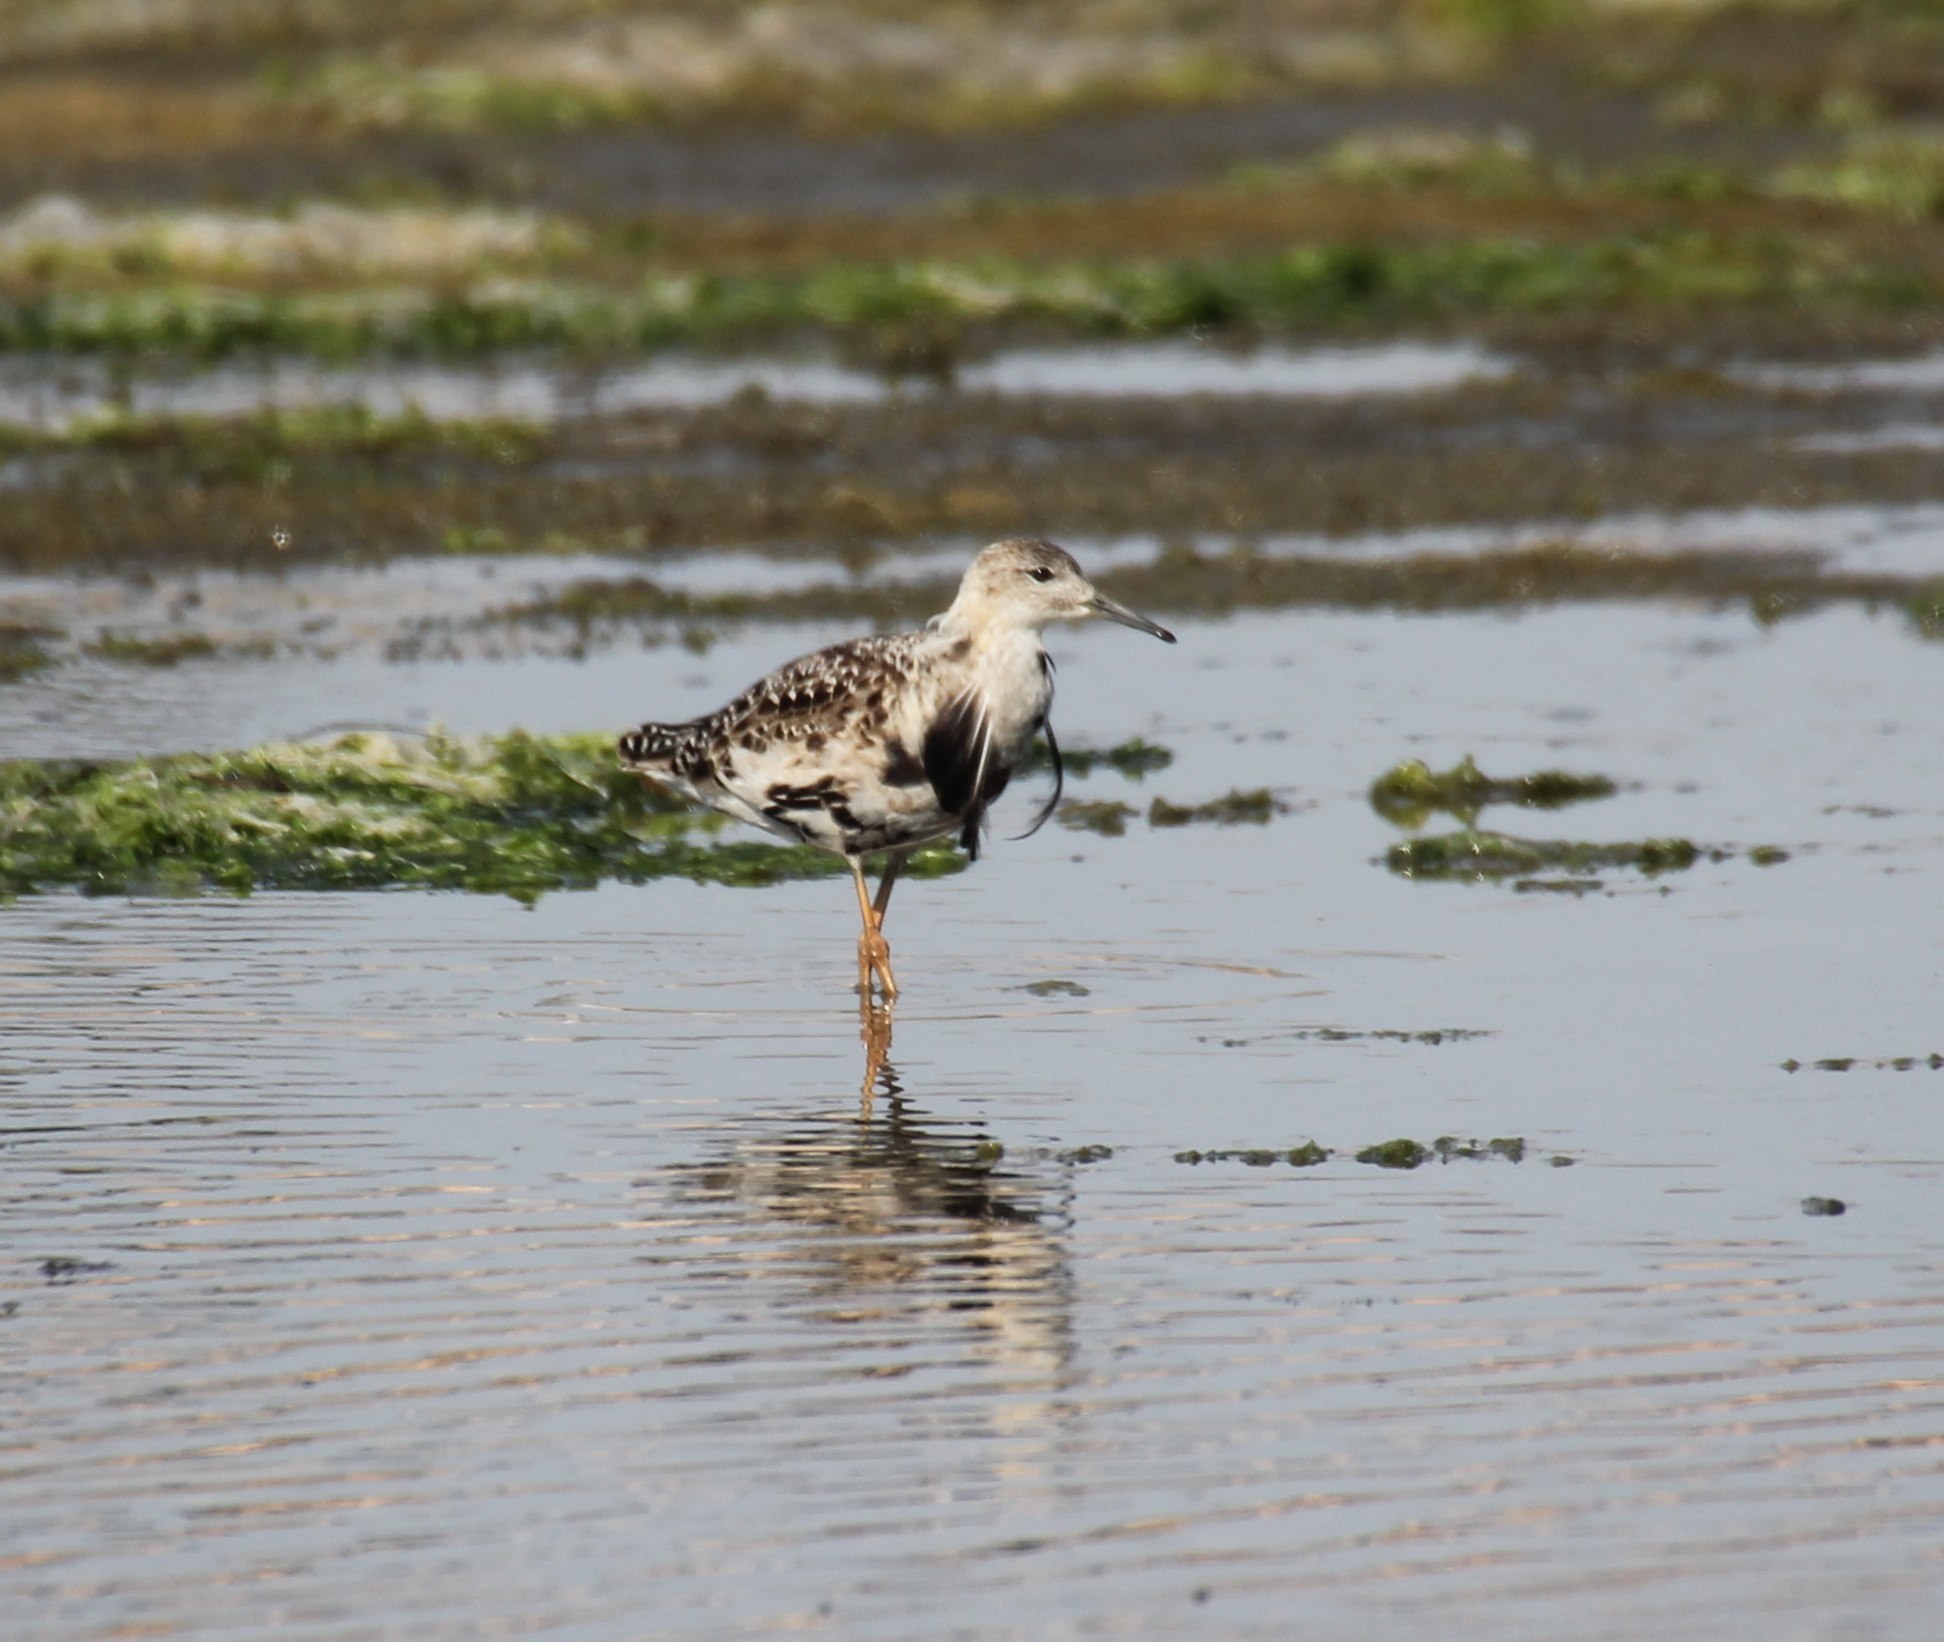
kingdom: Animalia
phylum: Chordata
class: Aves
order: Charadriiformes
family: Scolopacidae
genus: Calidris
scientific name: Calidris pugnax
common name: Ruff
